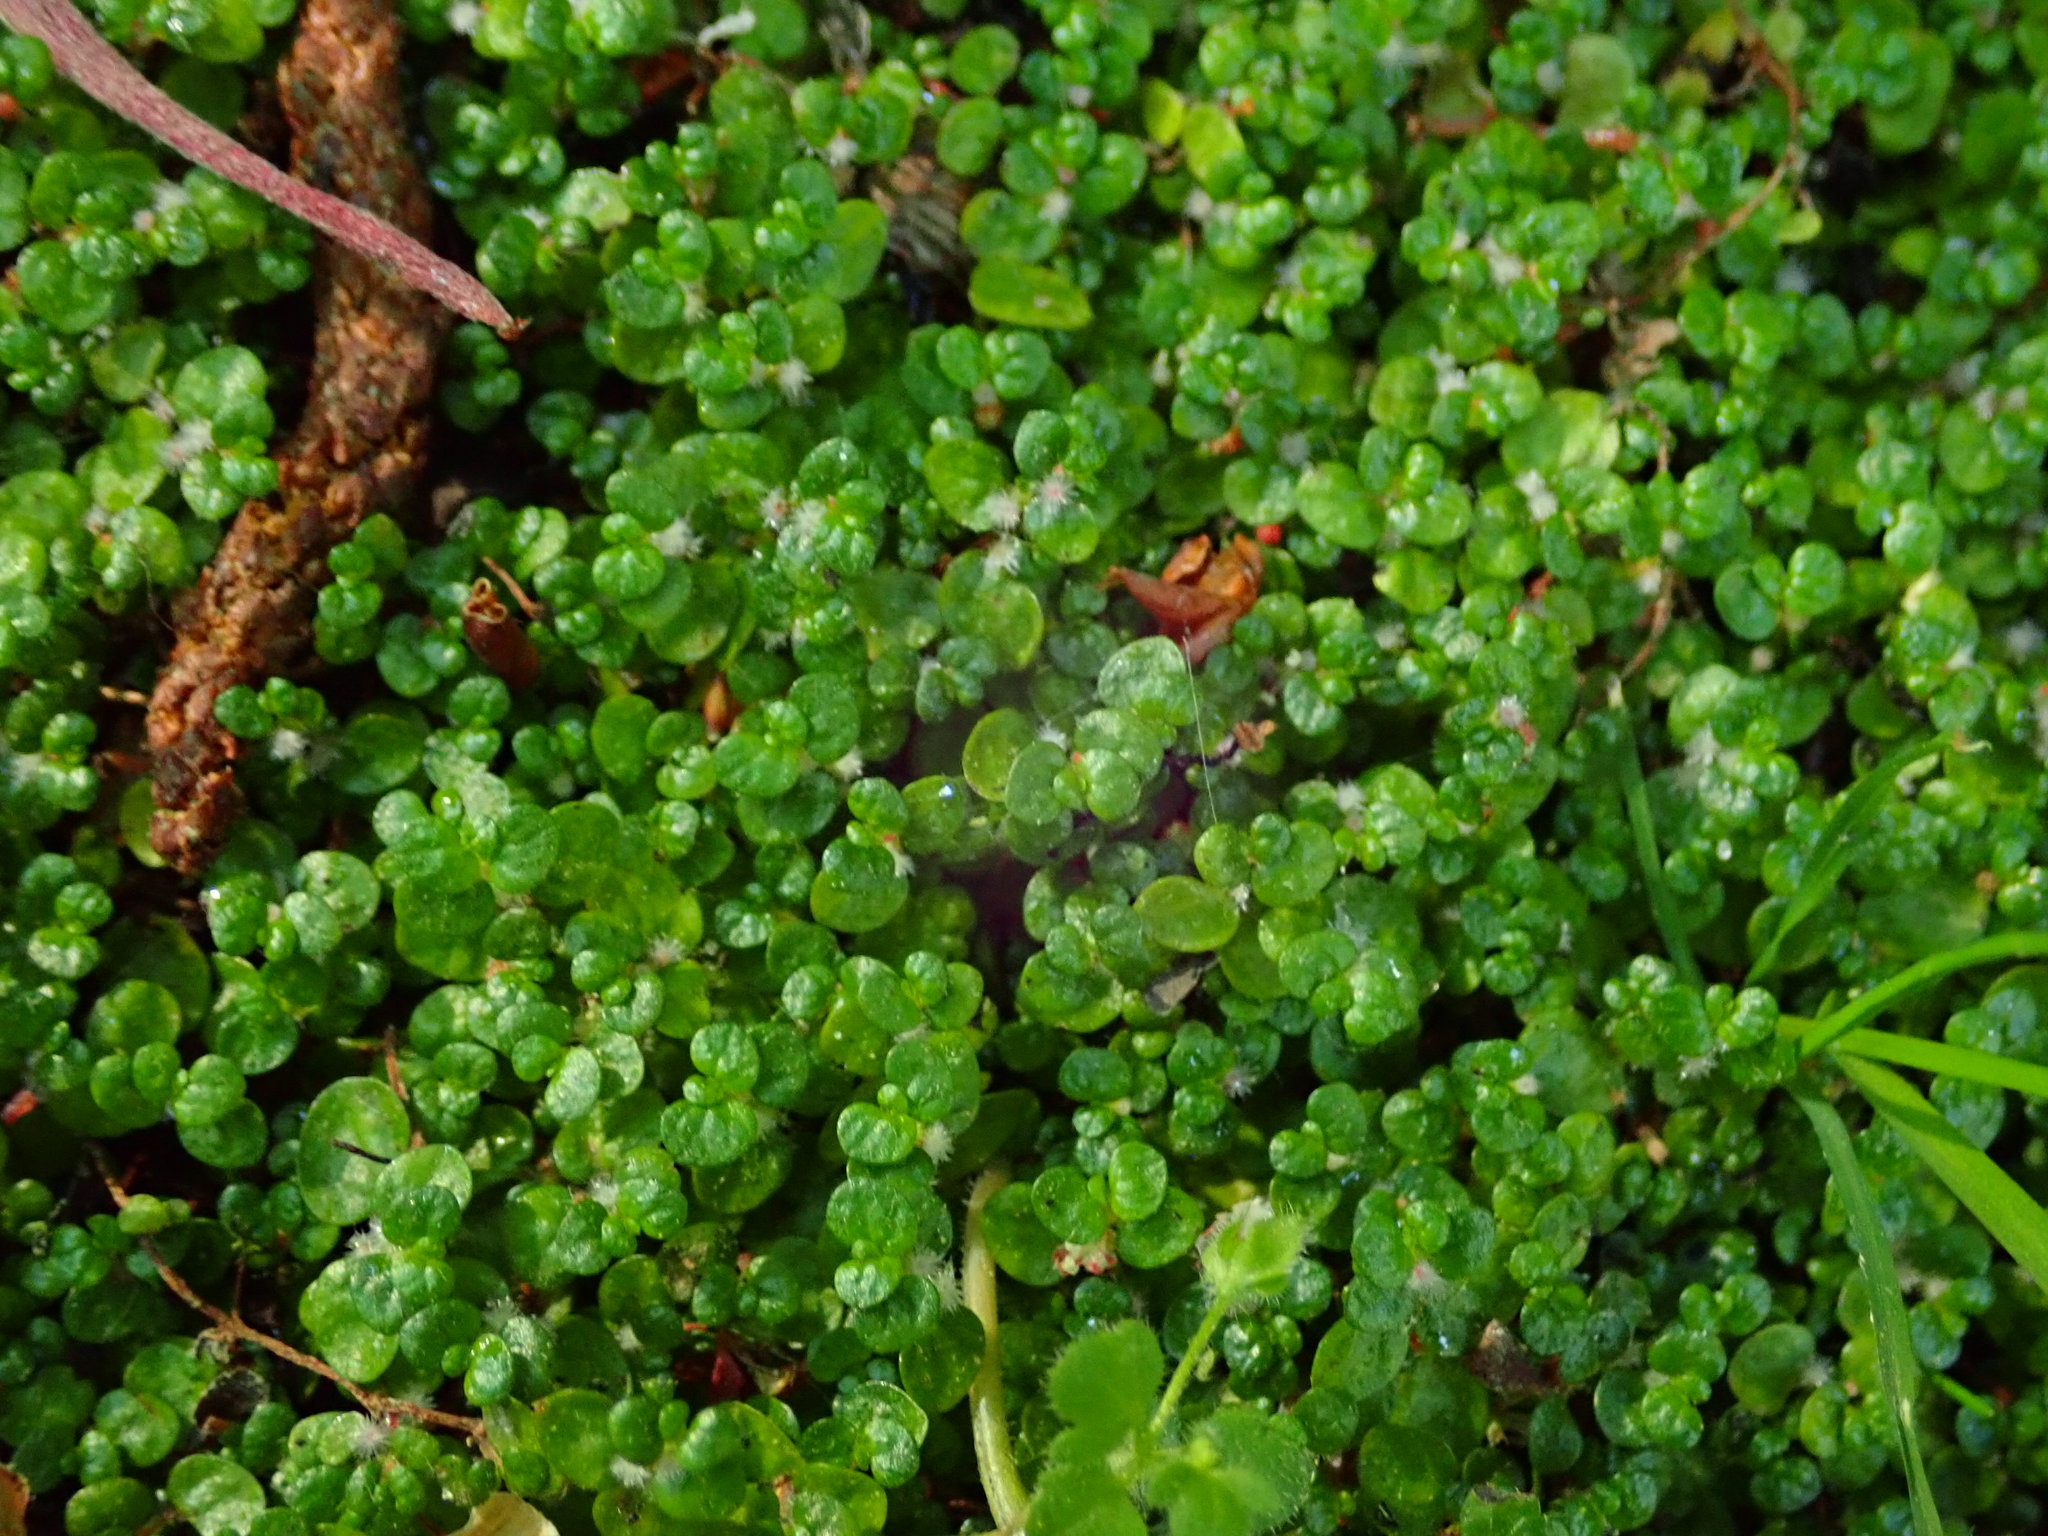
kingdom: Plantae
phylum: Tracheophyta
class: Magnoliopsida
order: Rosales
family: Urticaceae
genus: Soleirolia
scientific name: Soleirolia soleirolii
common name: Mind-your-own-business
